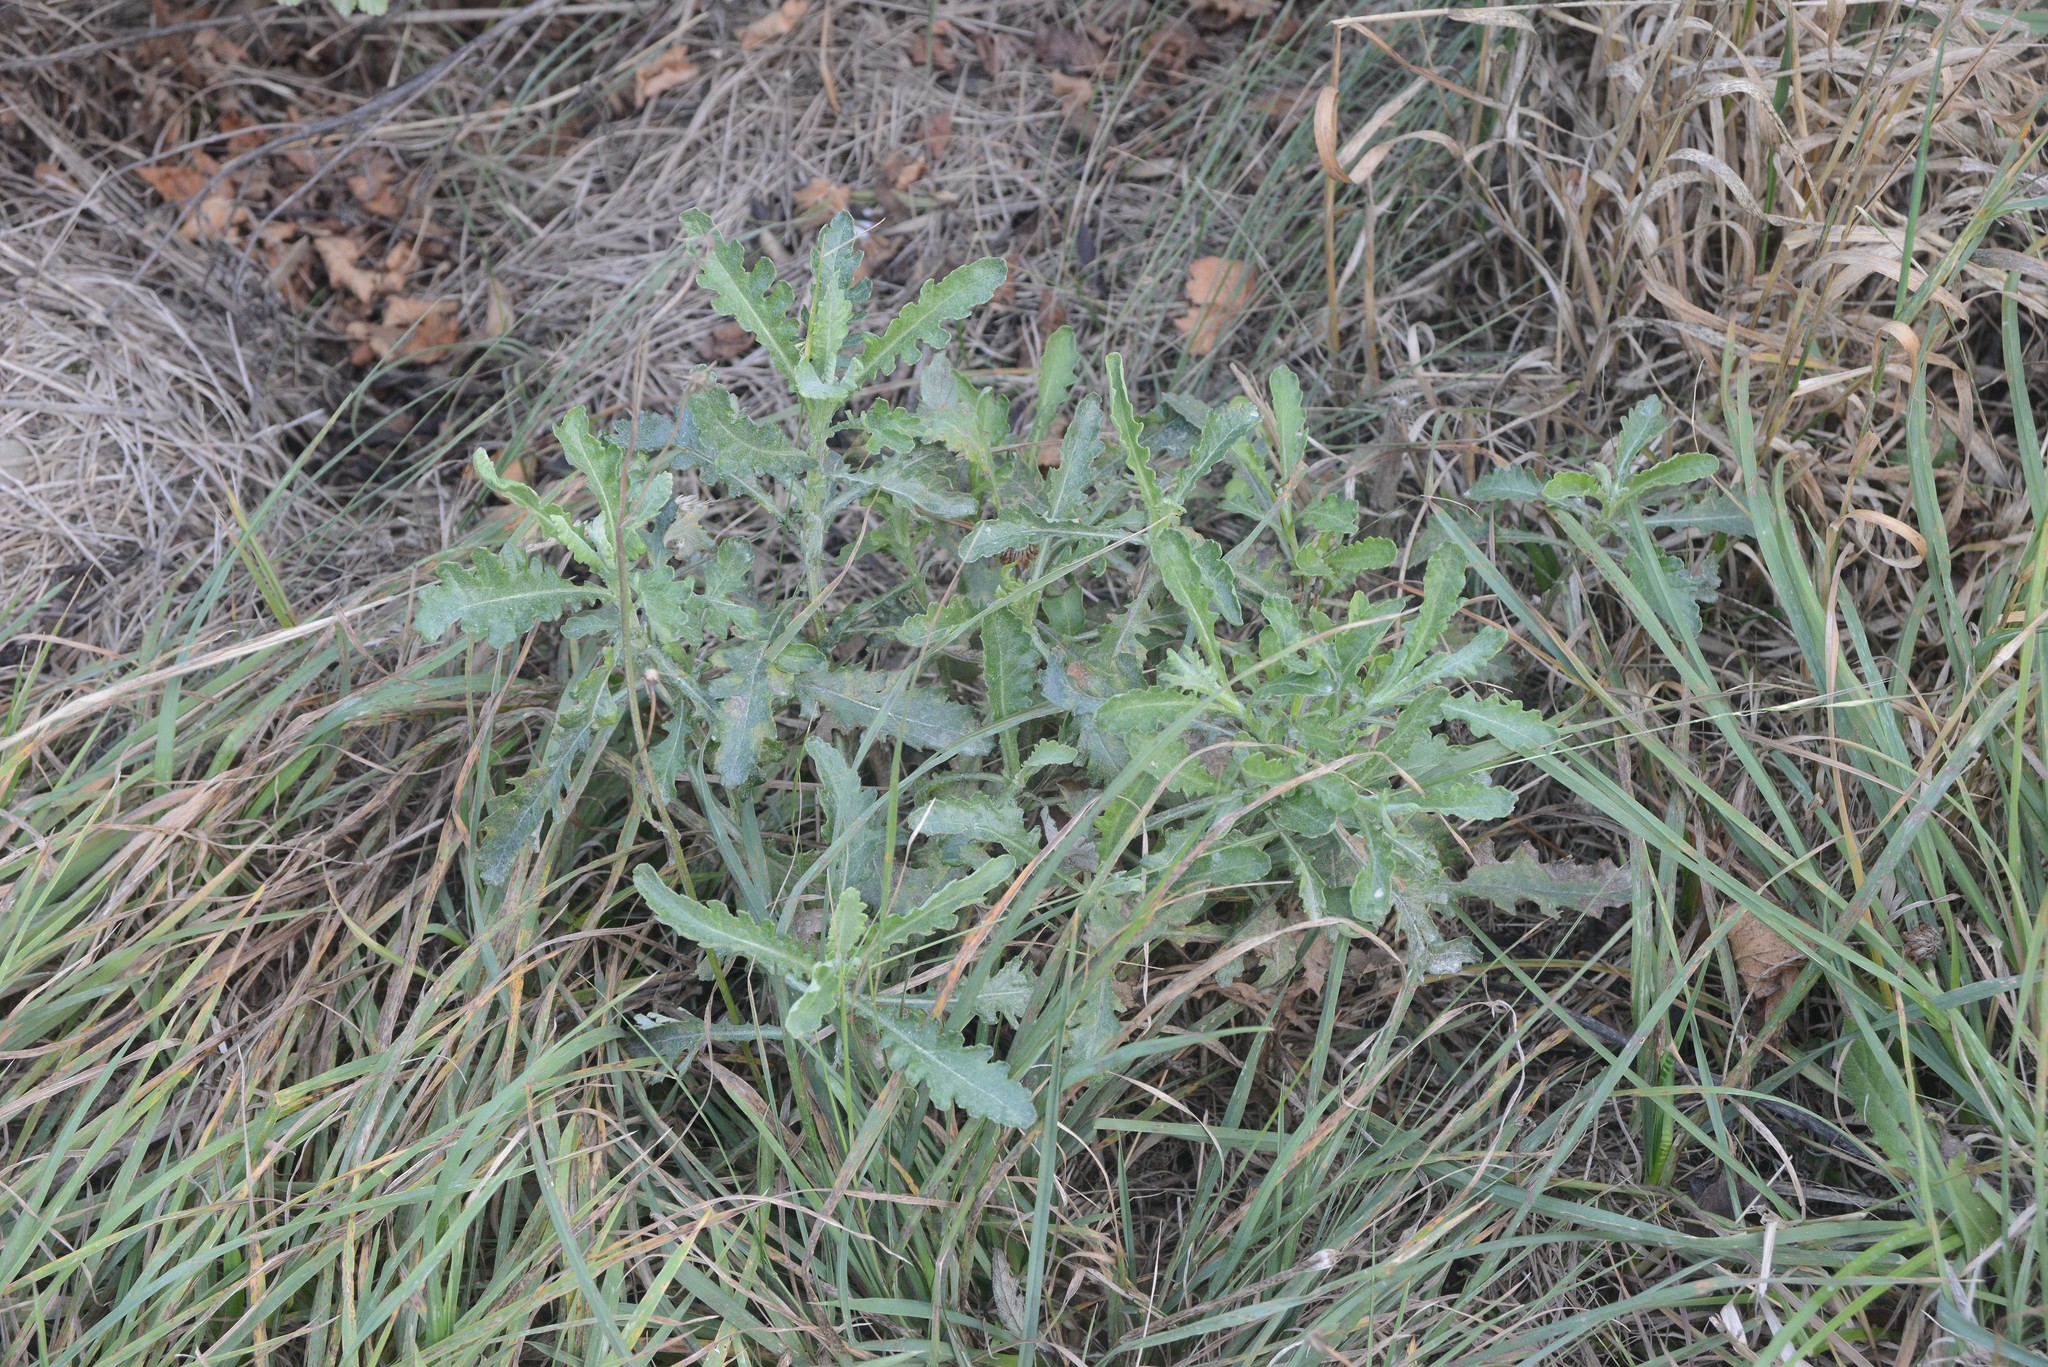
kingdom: Plantae
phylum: Tracheophyta
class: Magnoliopsida
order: Asterales
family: Asteraceae
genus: Senecio
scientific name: Senecio glomeratus
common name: Cutleaf burnweed
